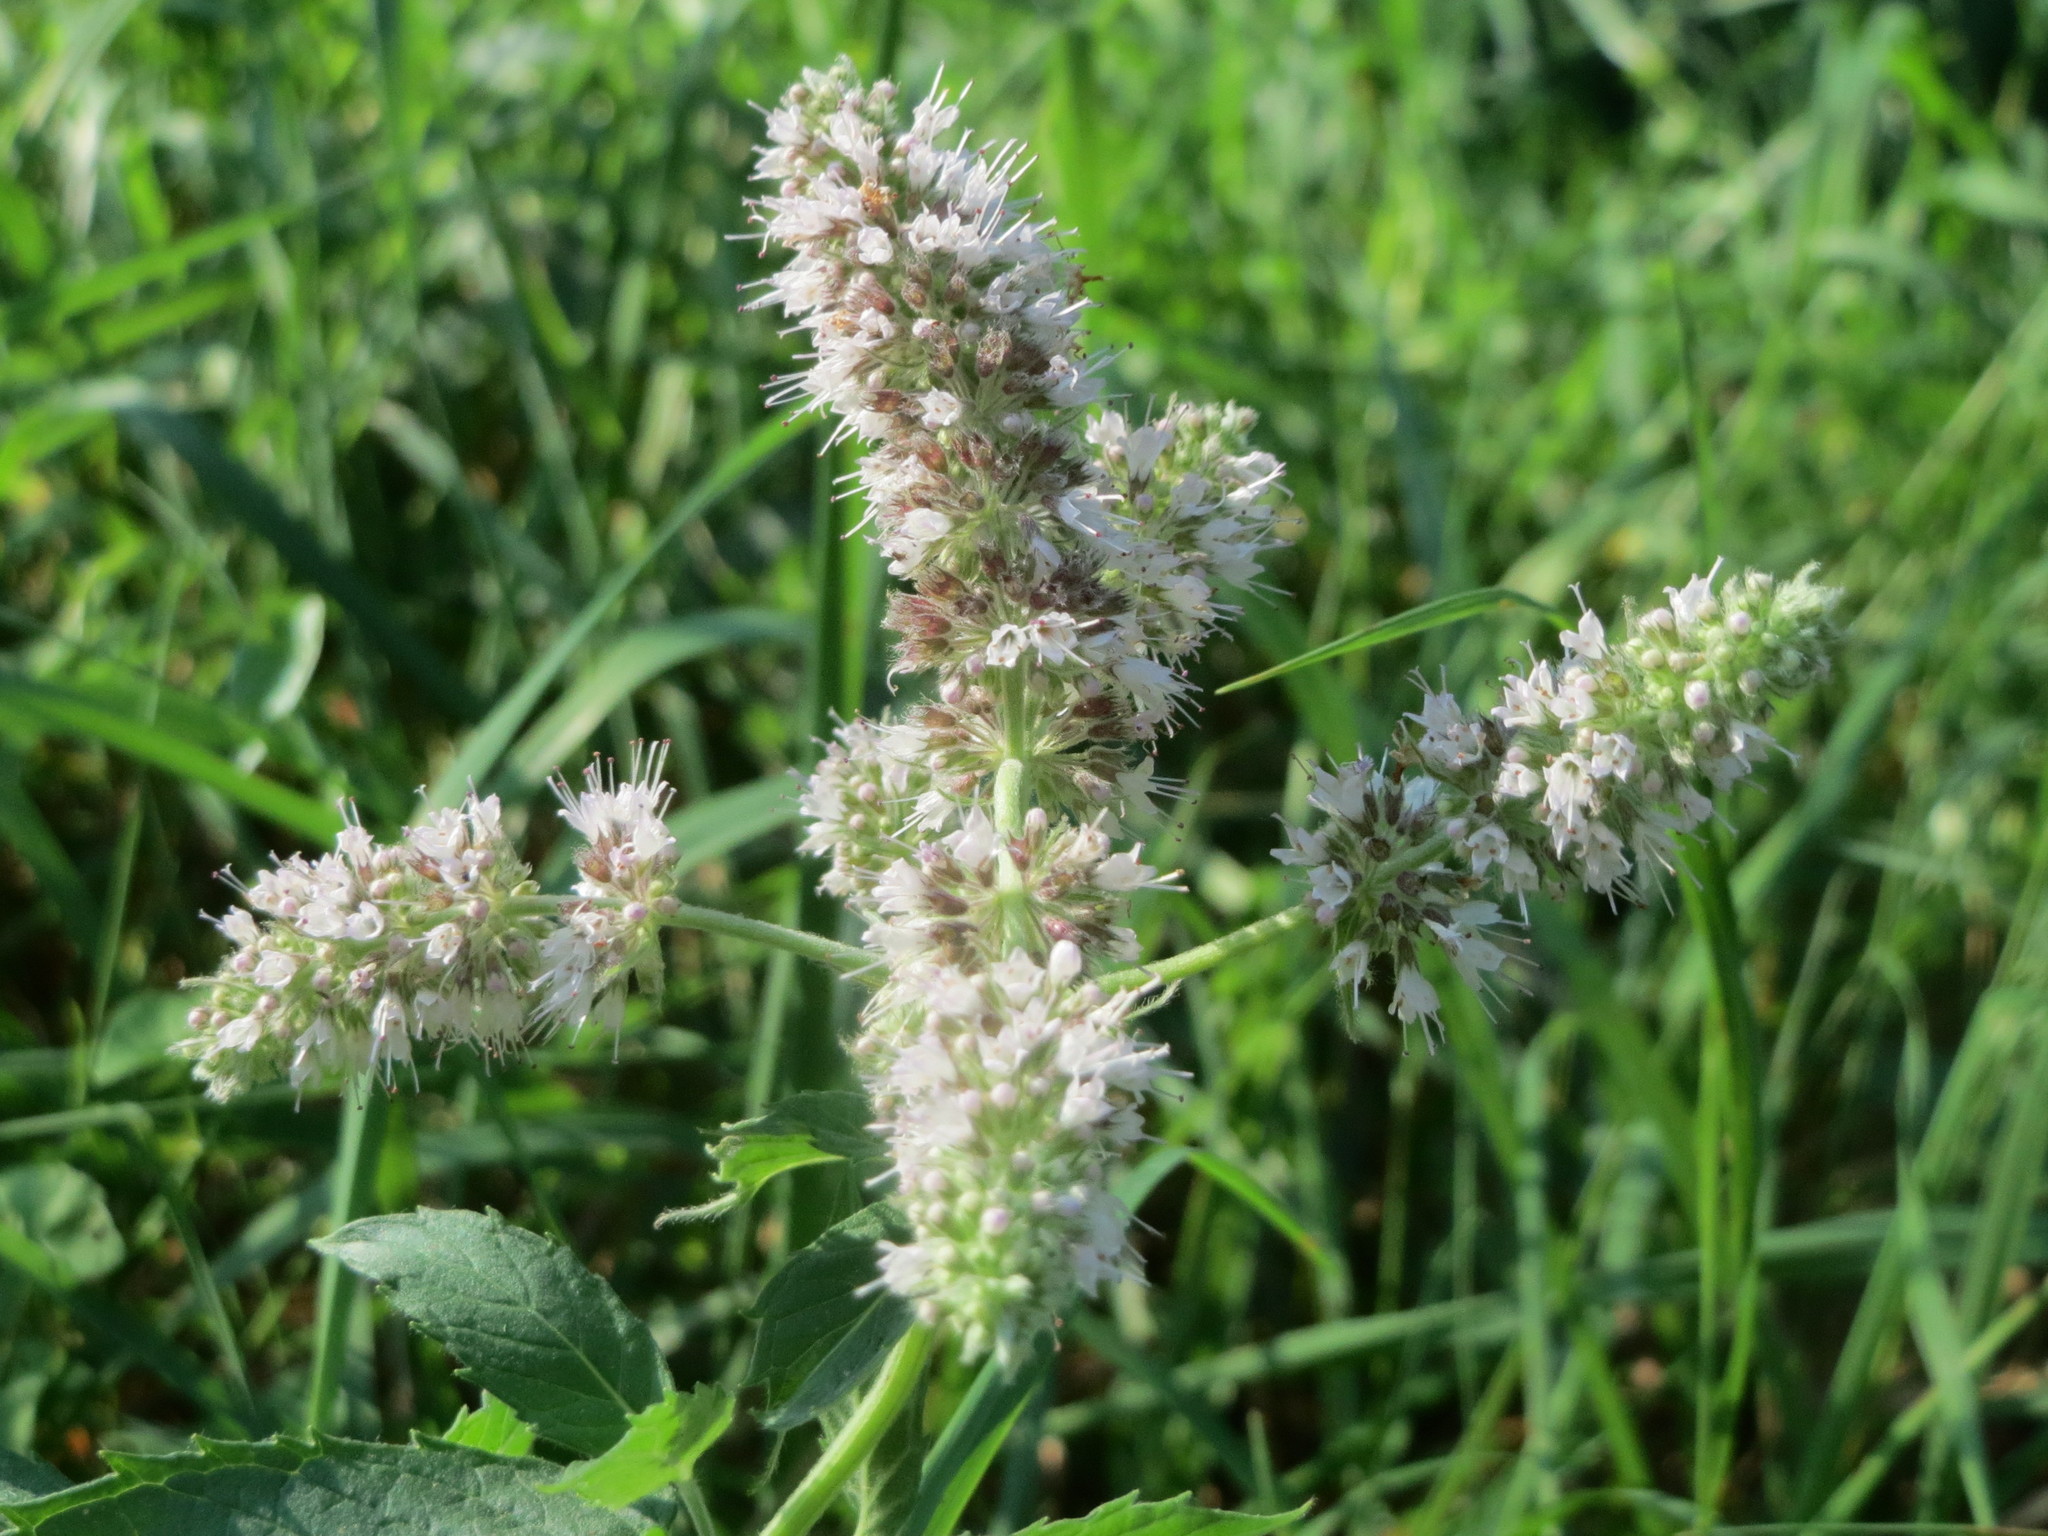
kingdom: Plantae
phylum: Tracheophyta
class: Magnoliopsida
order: Lamiales
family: Lamiaceae
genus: Mentha
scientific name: Mentha longifolia
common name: Horse mint
